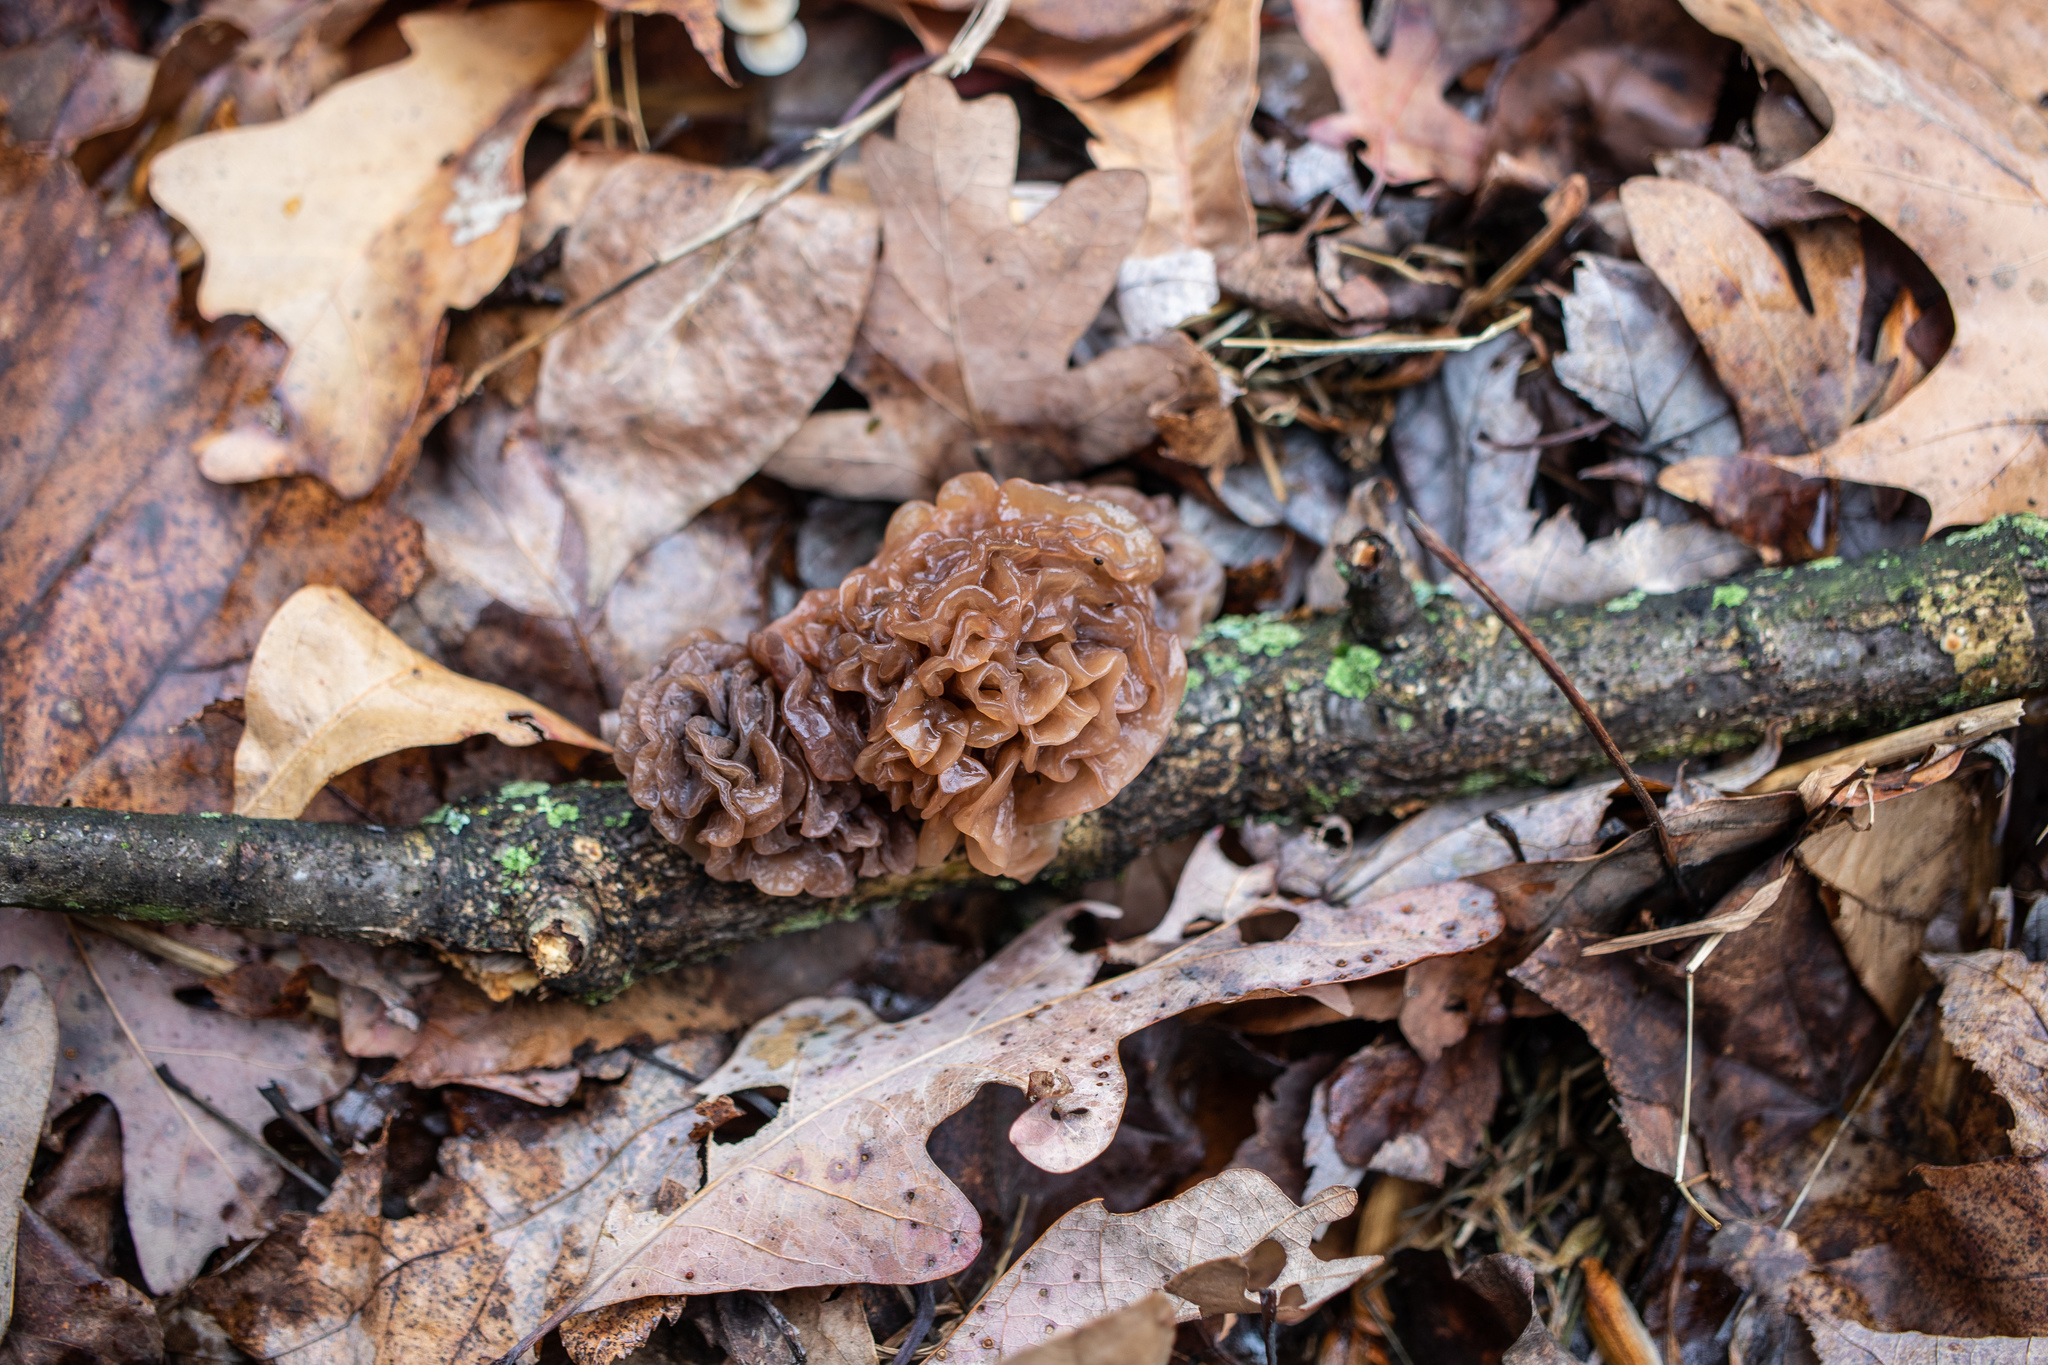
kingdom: Fungi
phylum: Basidiomycota
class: Tremellomycetes
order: Tremellales
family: Tremellaceae
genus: Phaeotremella
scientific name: Phaeotremella frondosa
